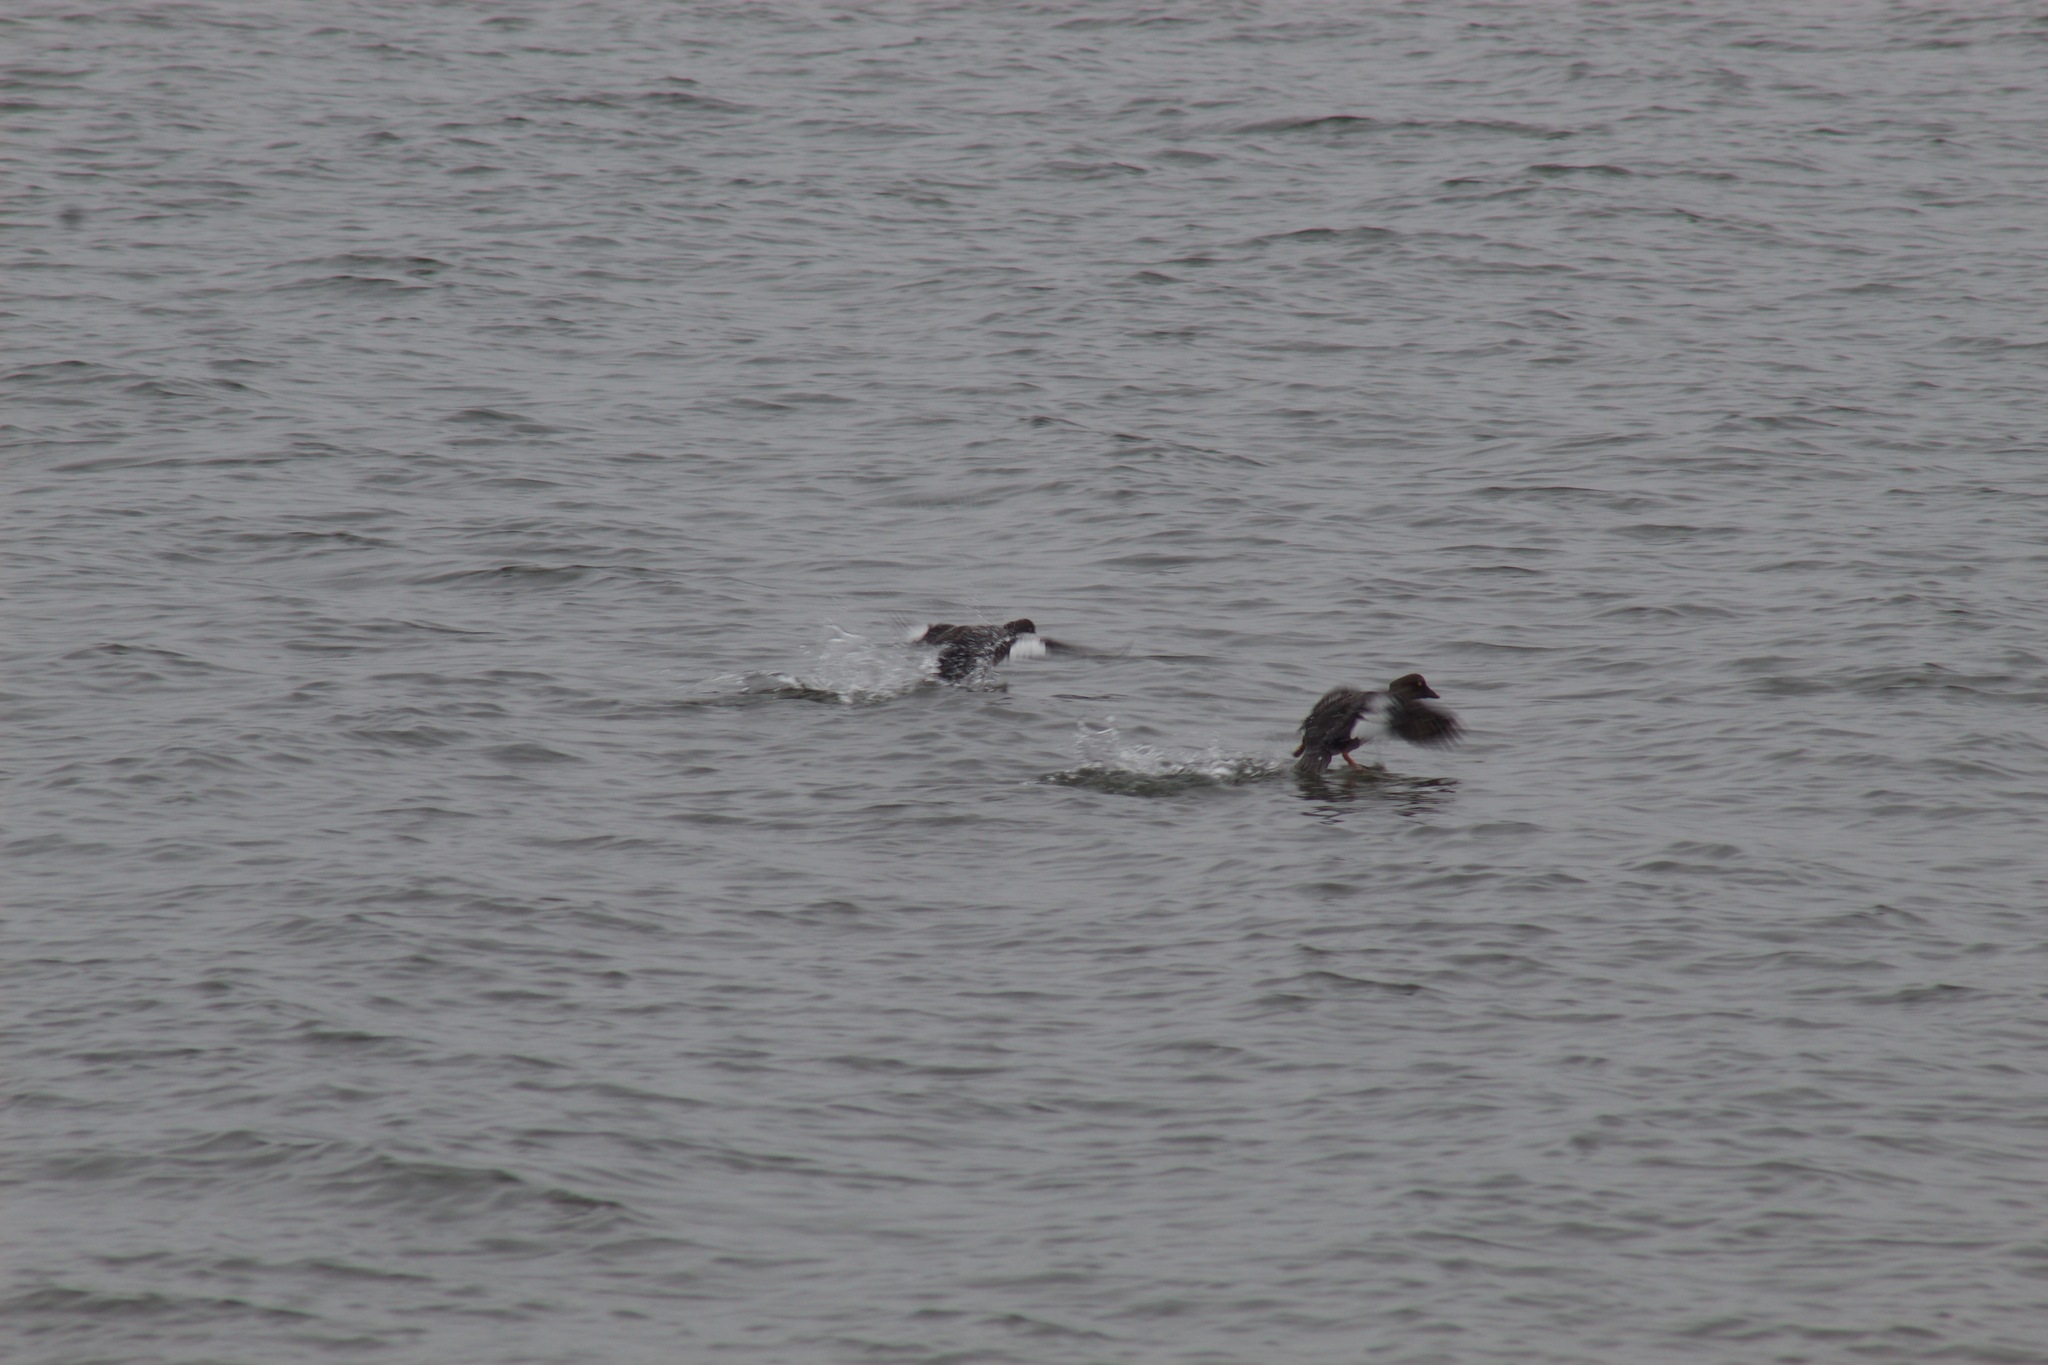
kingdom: Animalia
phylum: Chordata
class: Aves
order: Anseriformes
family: Anatidae
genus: Bucephala
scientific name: Bucephala clangula
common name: Common goldeneye
